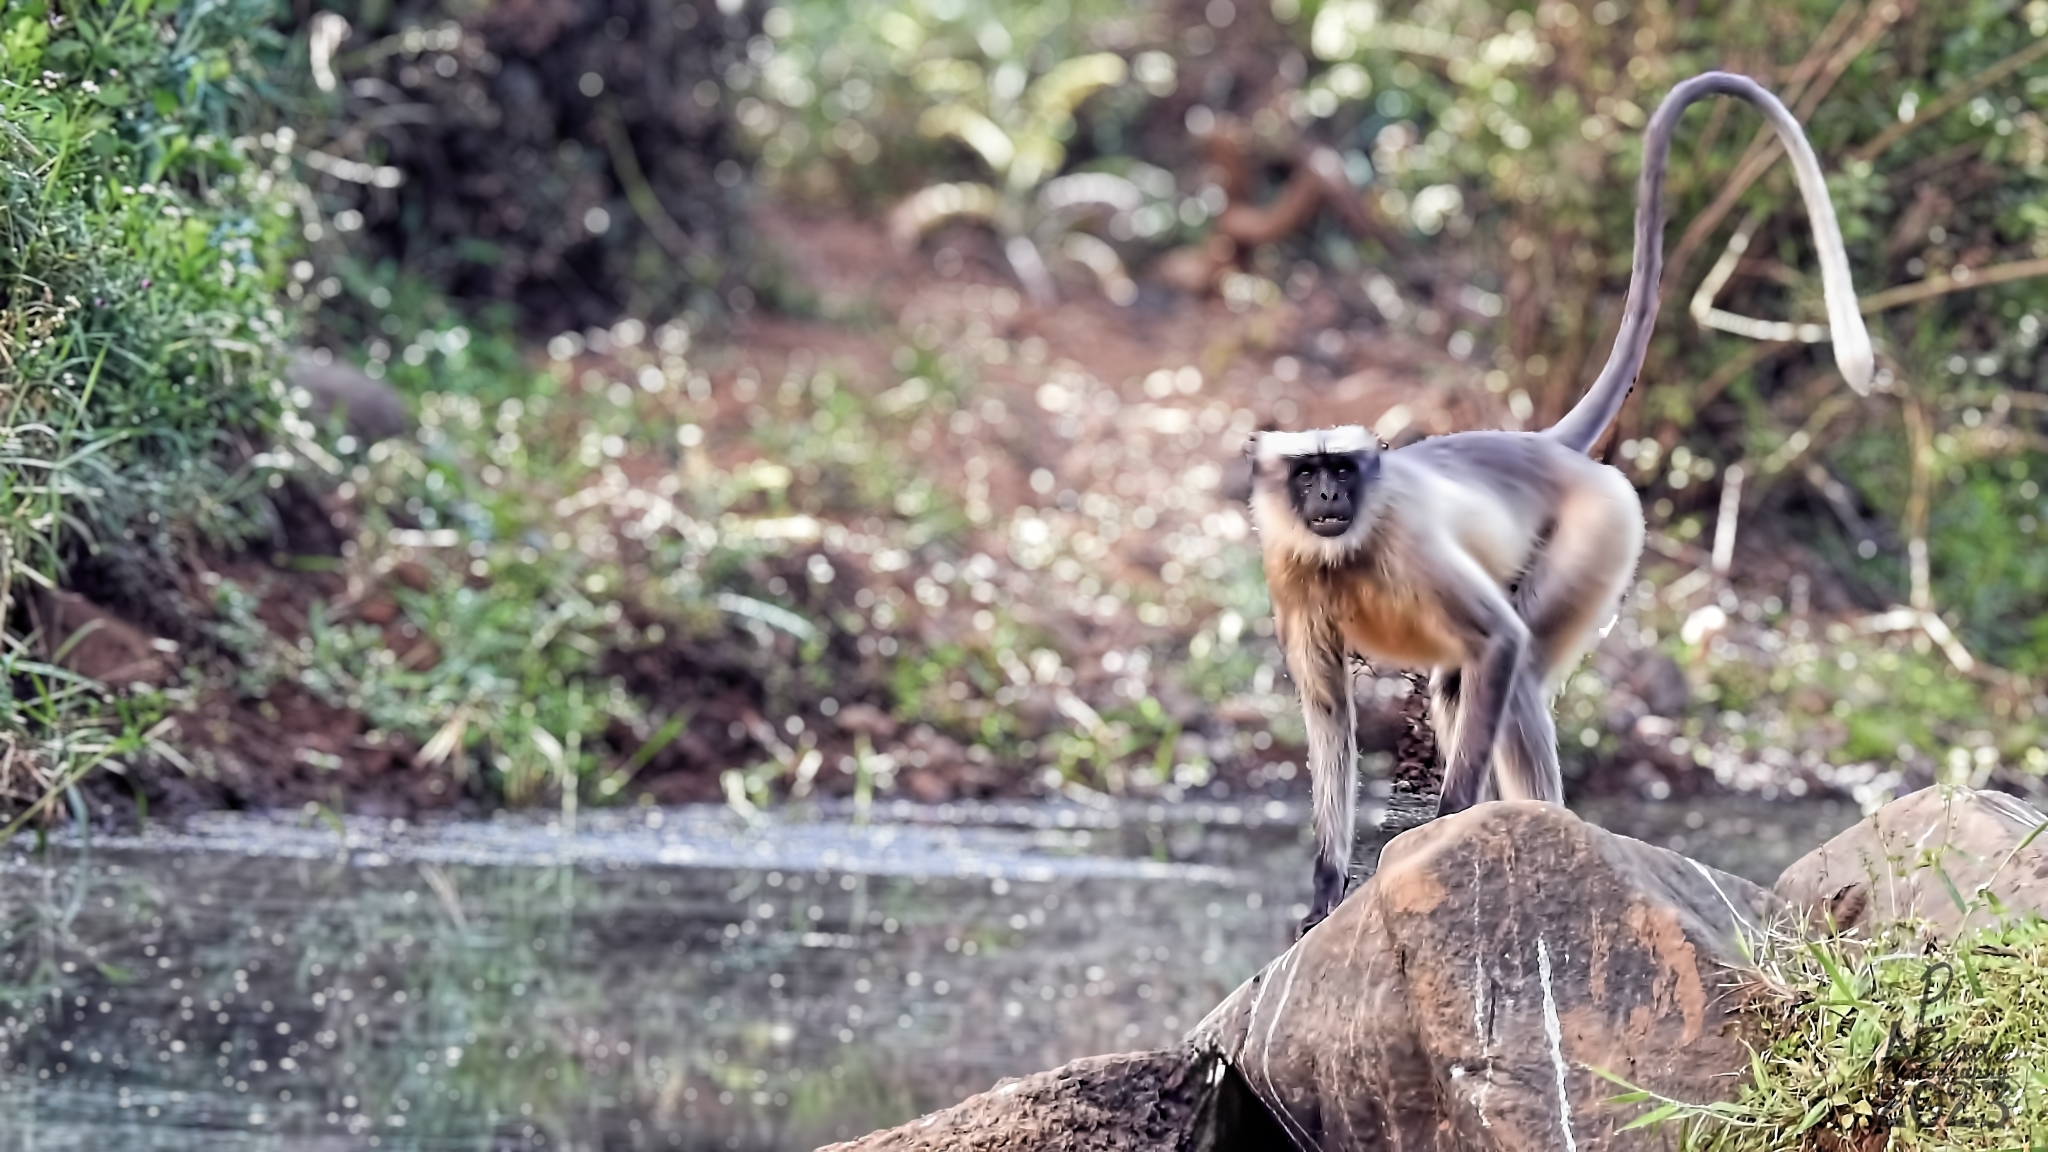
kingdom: Animalia
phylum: Chordata
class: Mammalia
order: Primates
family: Cercopithecidae
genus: Semnopithecus
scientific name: Semnopithecus hypoleucos
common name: Black-footed gray langur
